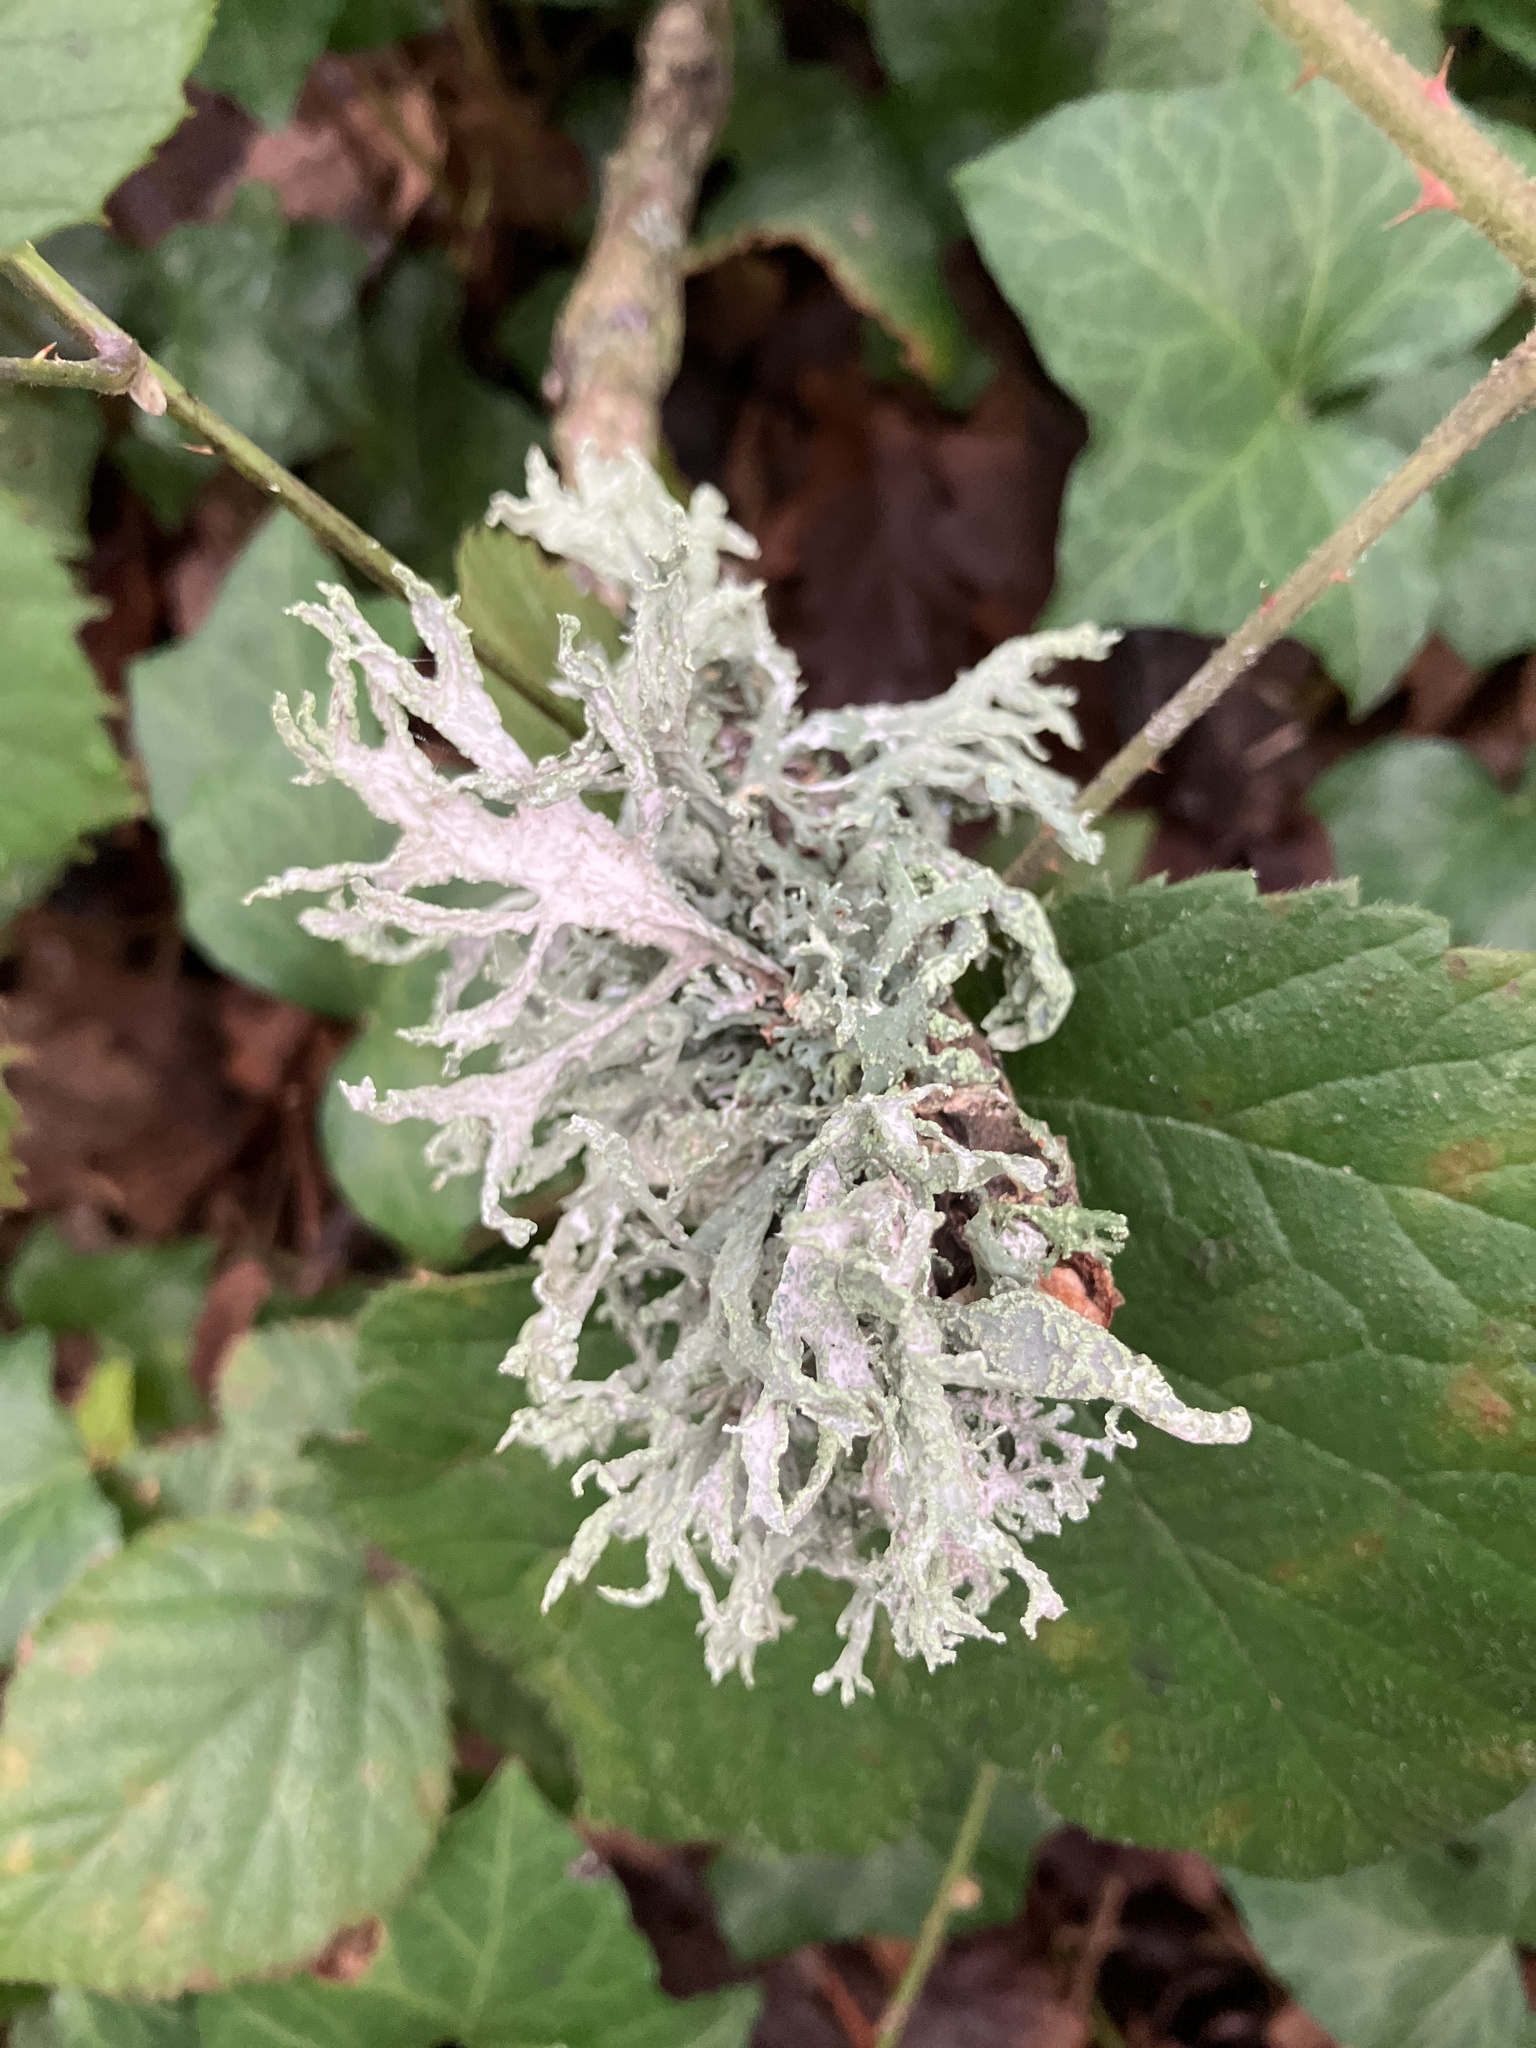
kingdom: Fungi
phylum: Ascomycota
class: Lecanoromycetes
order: Lecanorales
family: Parmeliaceae
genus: Evernia
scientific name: Evernia prunastri
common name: Oak moss
